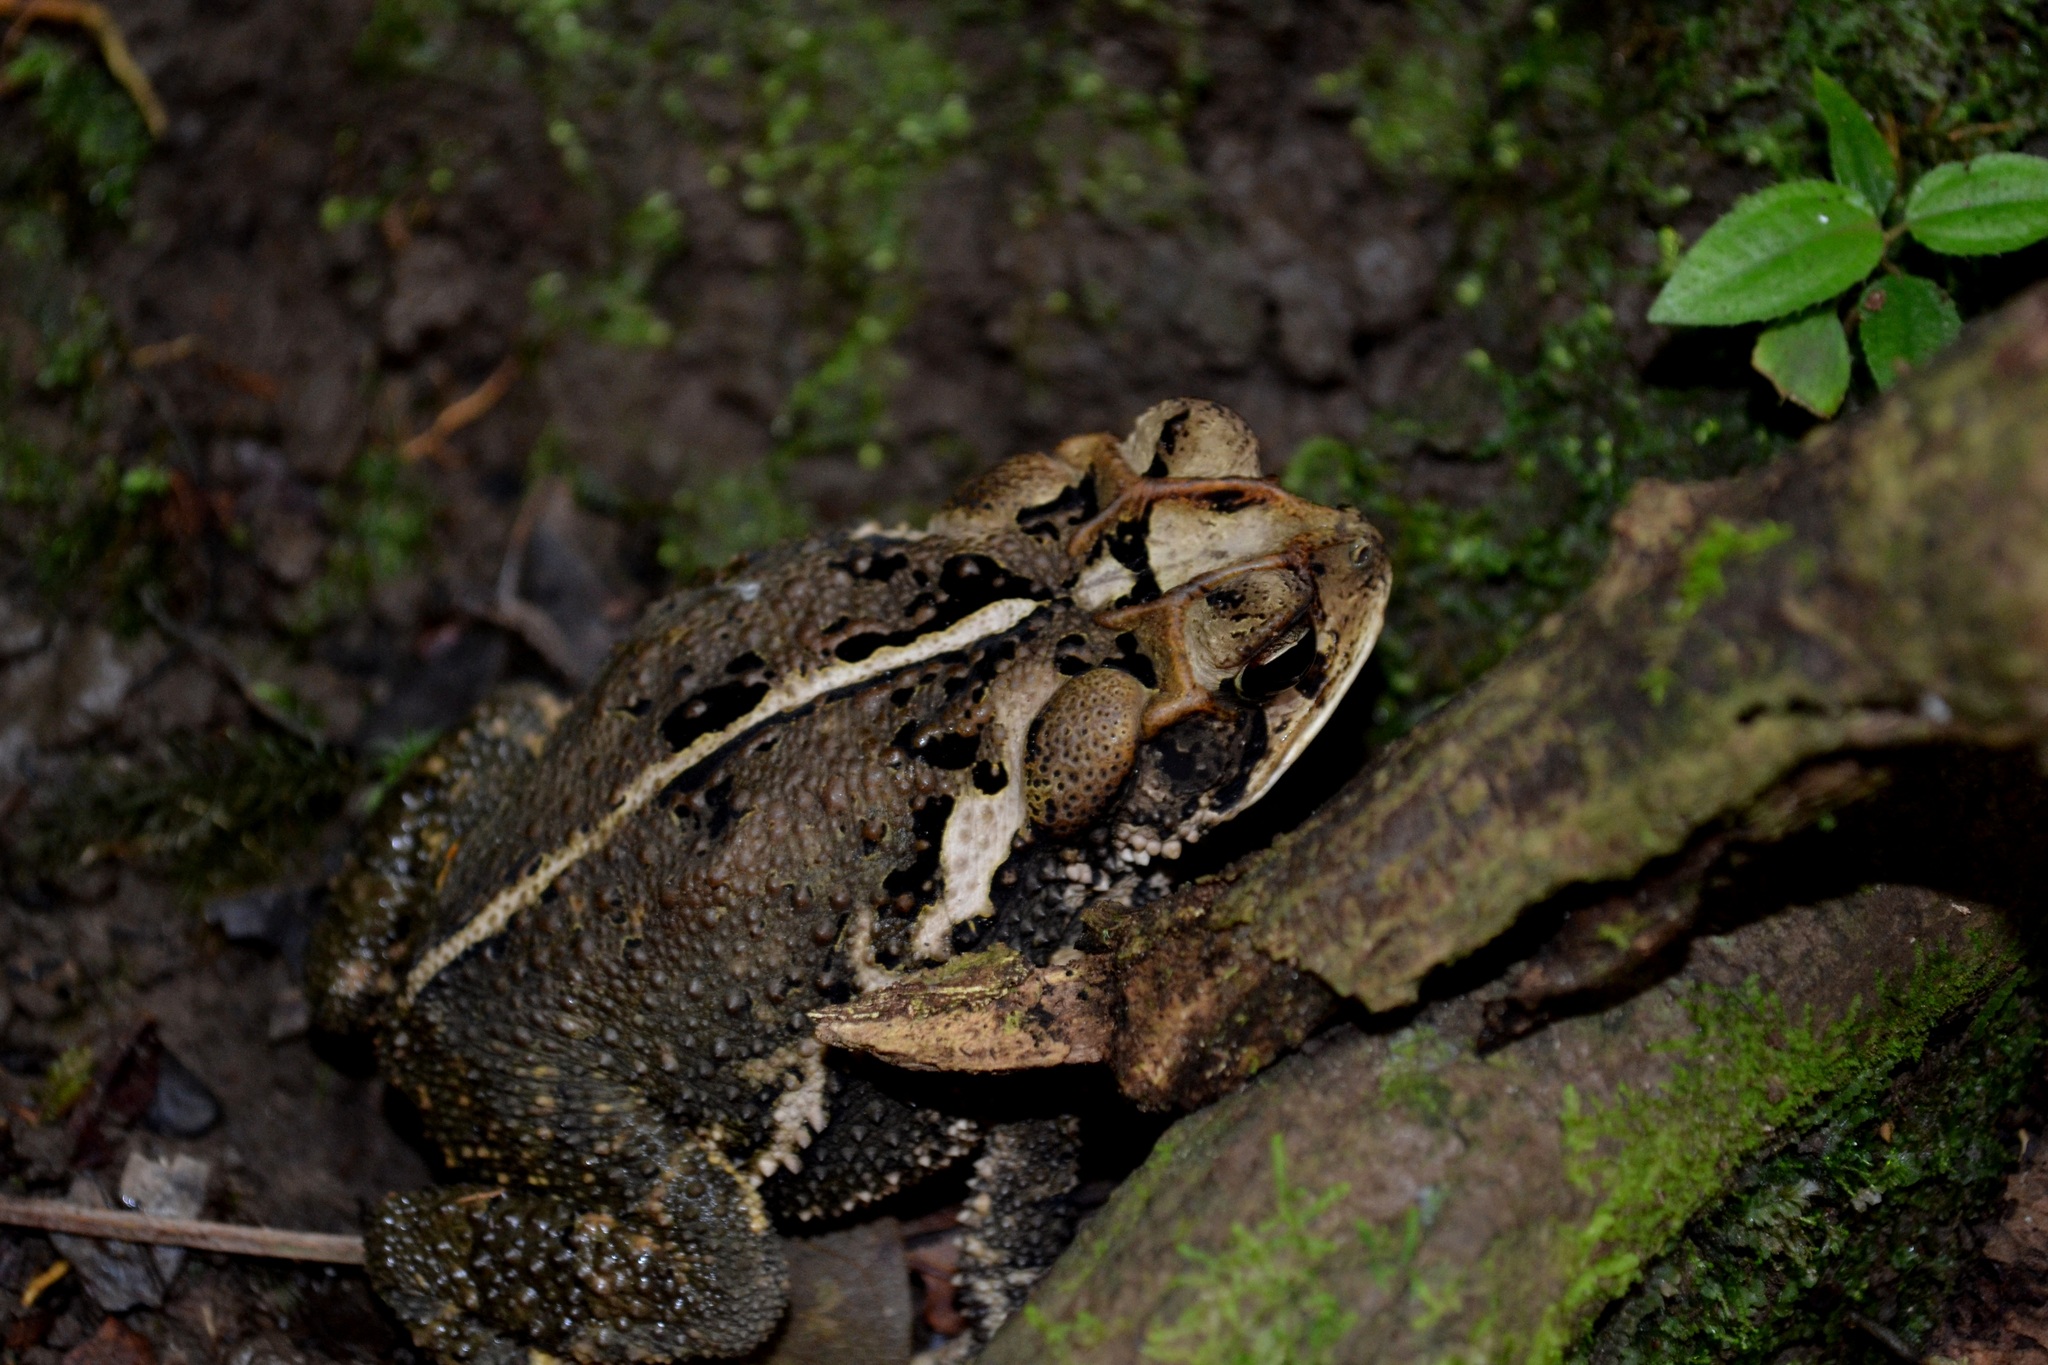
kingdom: Animalia
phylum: Chordata
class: Amphibia
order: Anura
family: Bufonidae
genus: Incilius
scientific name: Incilius valliceps
